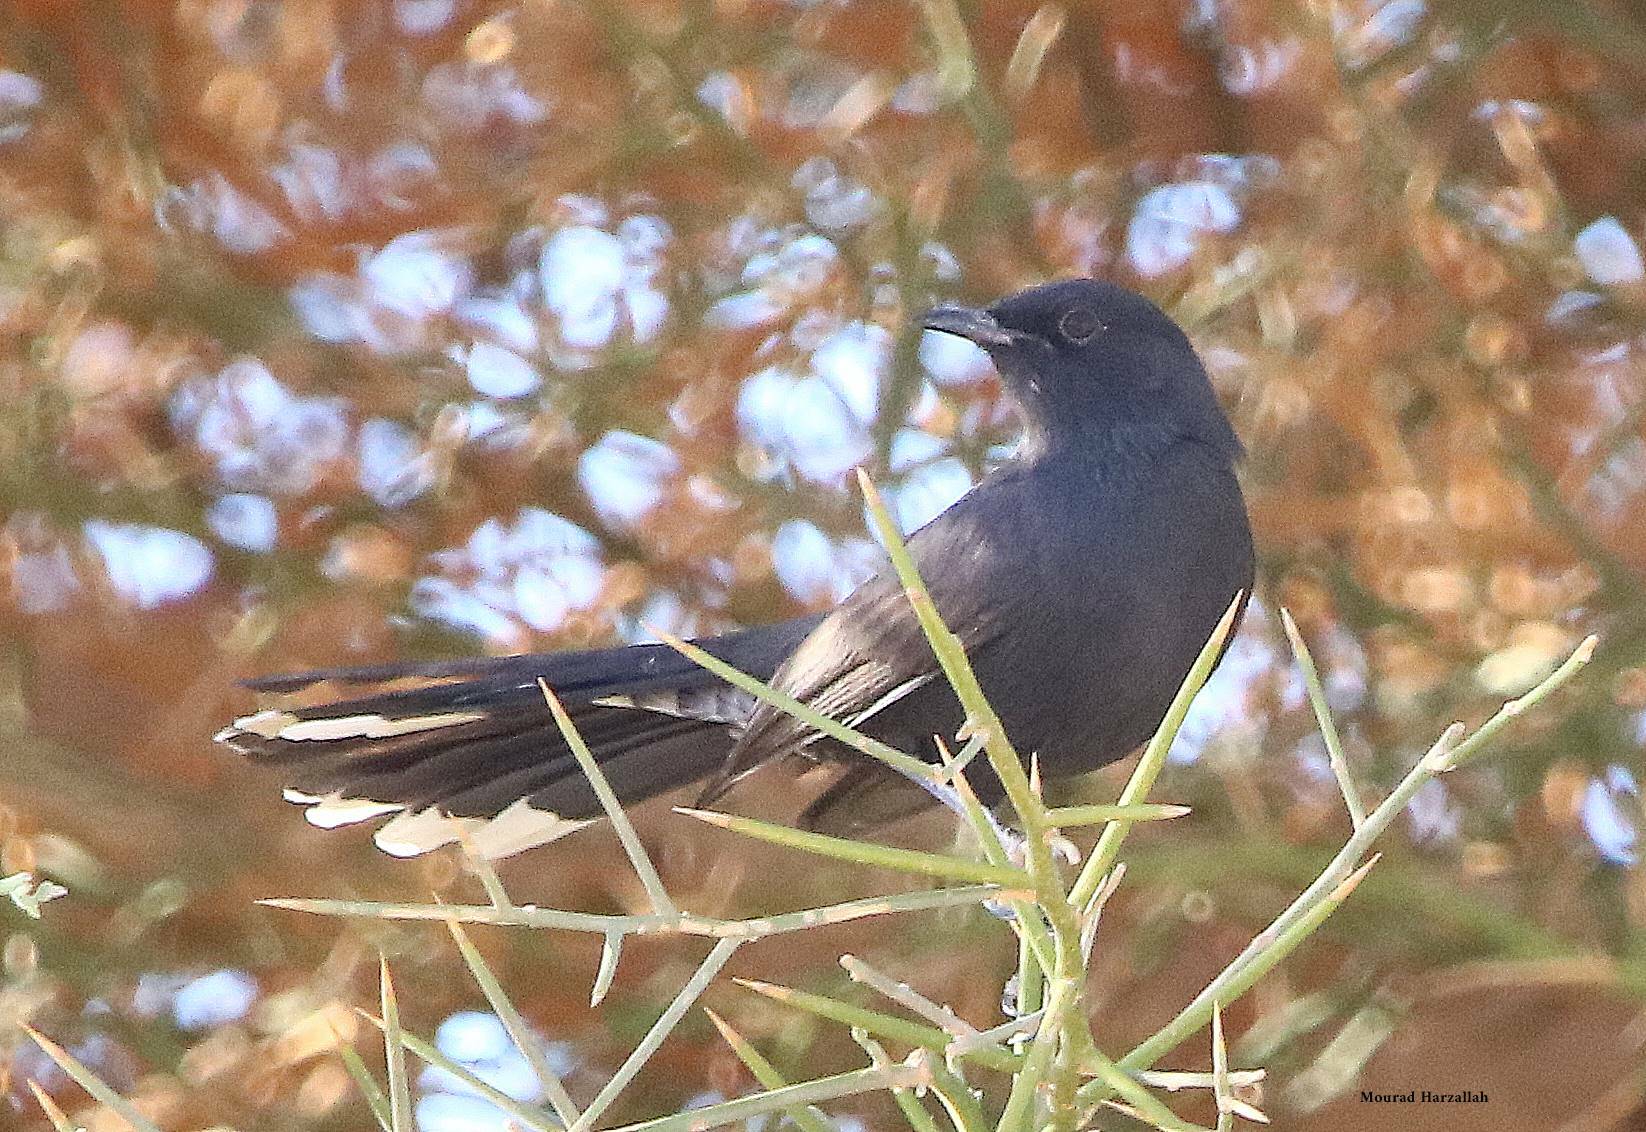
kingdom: Animalia
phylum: Chordata
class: Aves
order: Passeriformes
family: Muscicapidae
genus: Cercotrichas
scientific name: Cercotrichas podobe
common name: Black scrub robin
